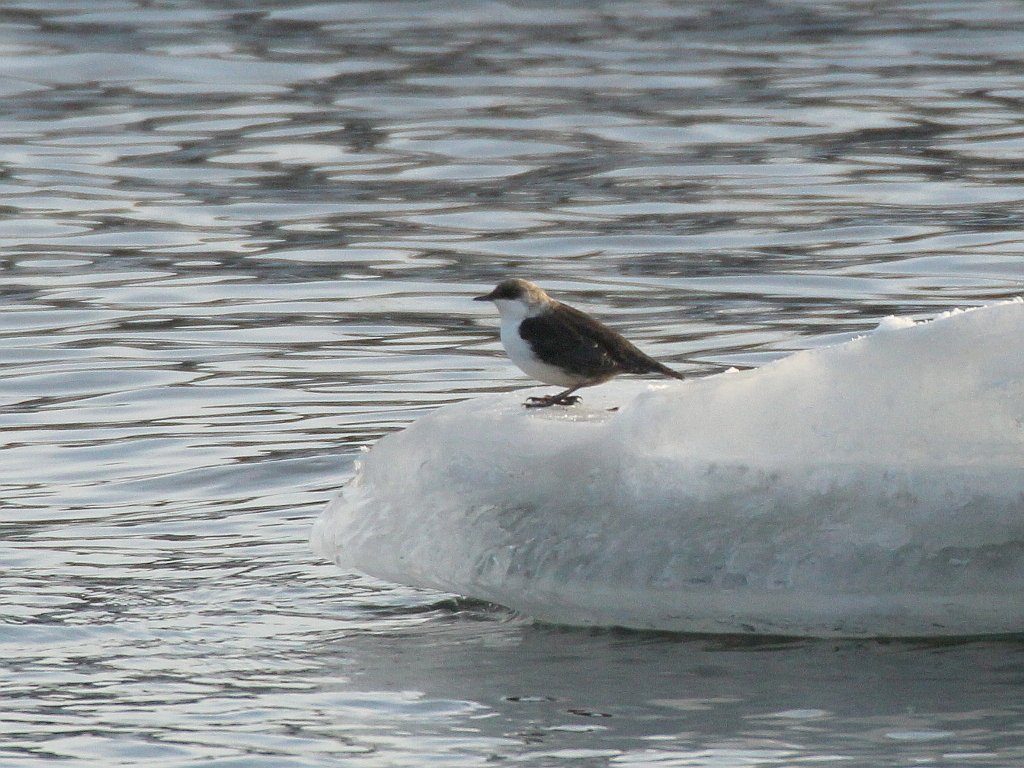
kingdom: Animalia
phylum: Chordata
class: Aves
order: Passeriformes
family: Cinclidae
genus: Cinclus
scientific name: Cinclus cinclus
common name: White-throated dipper
